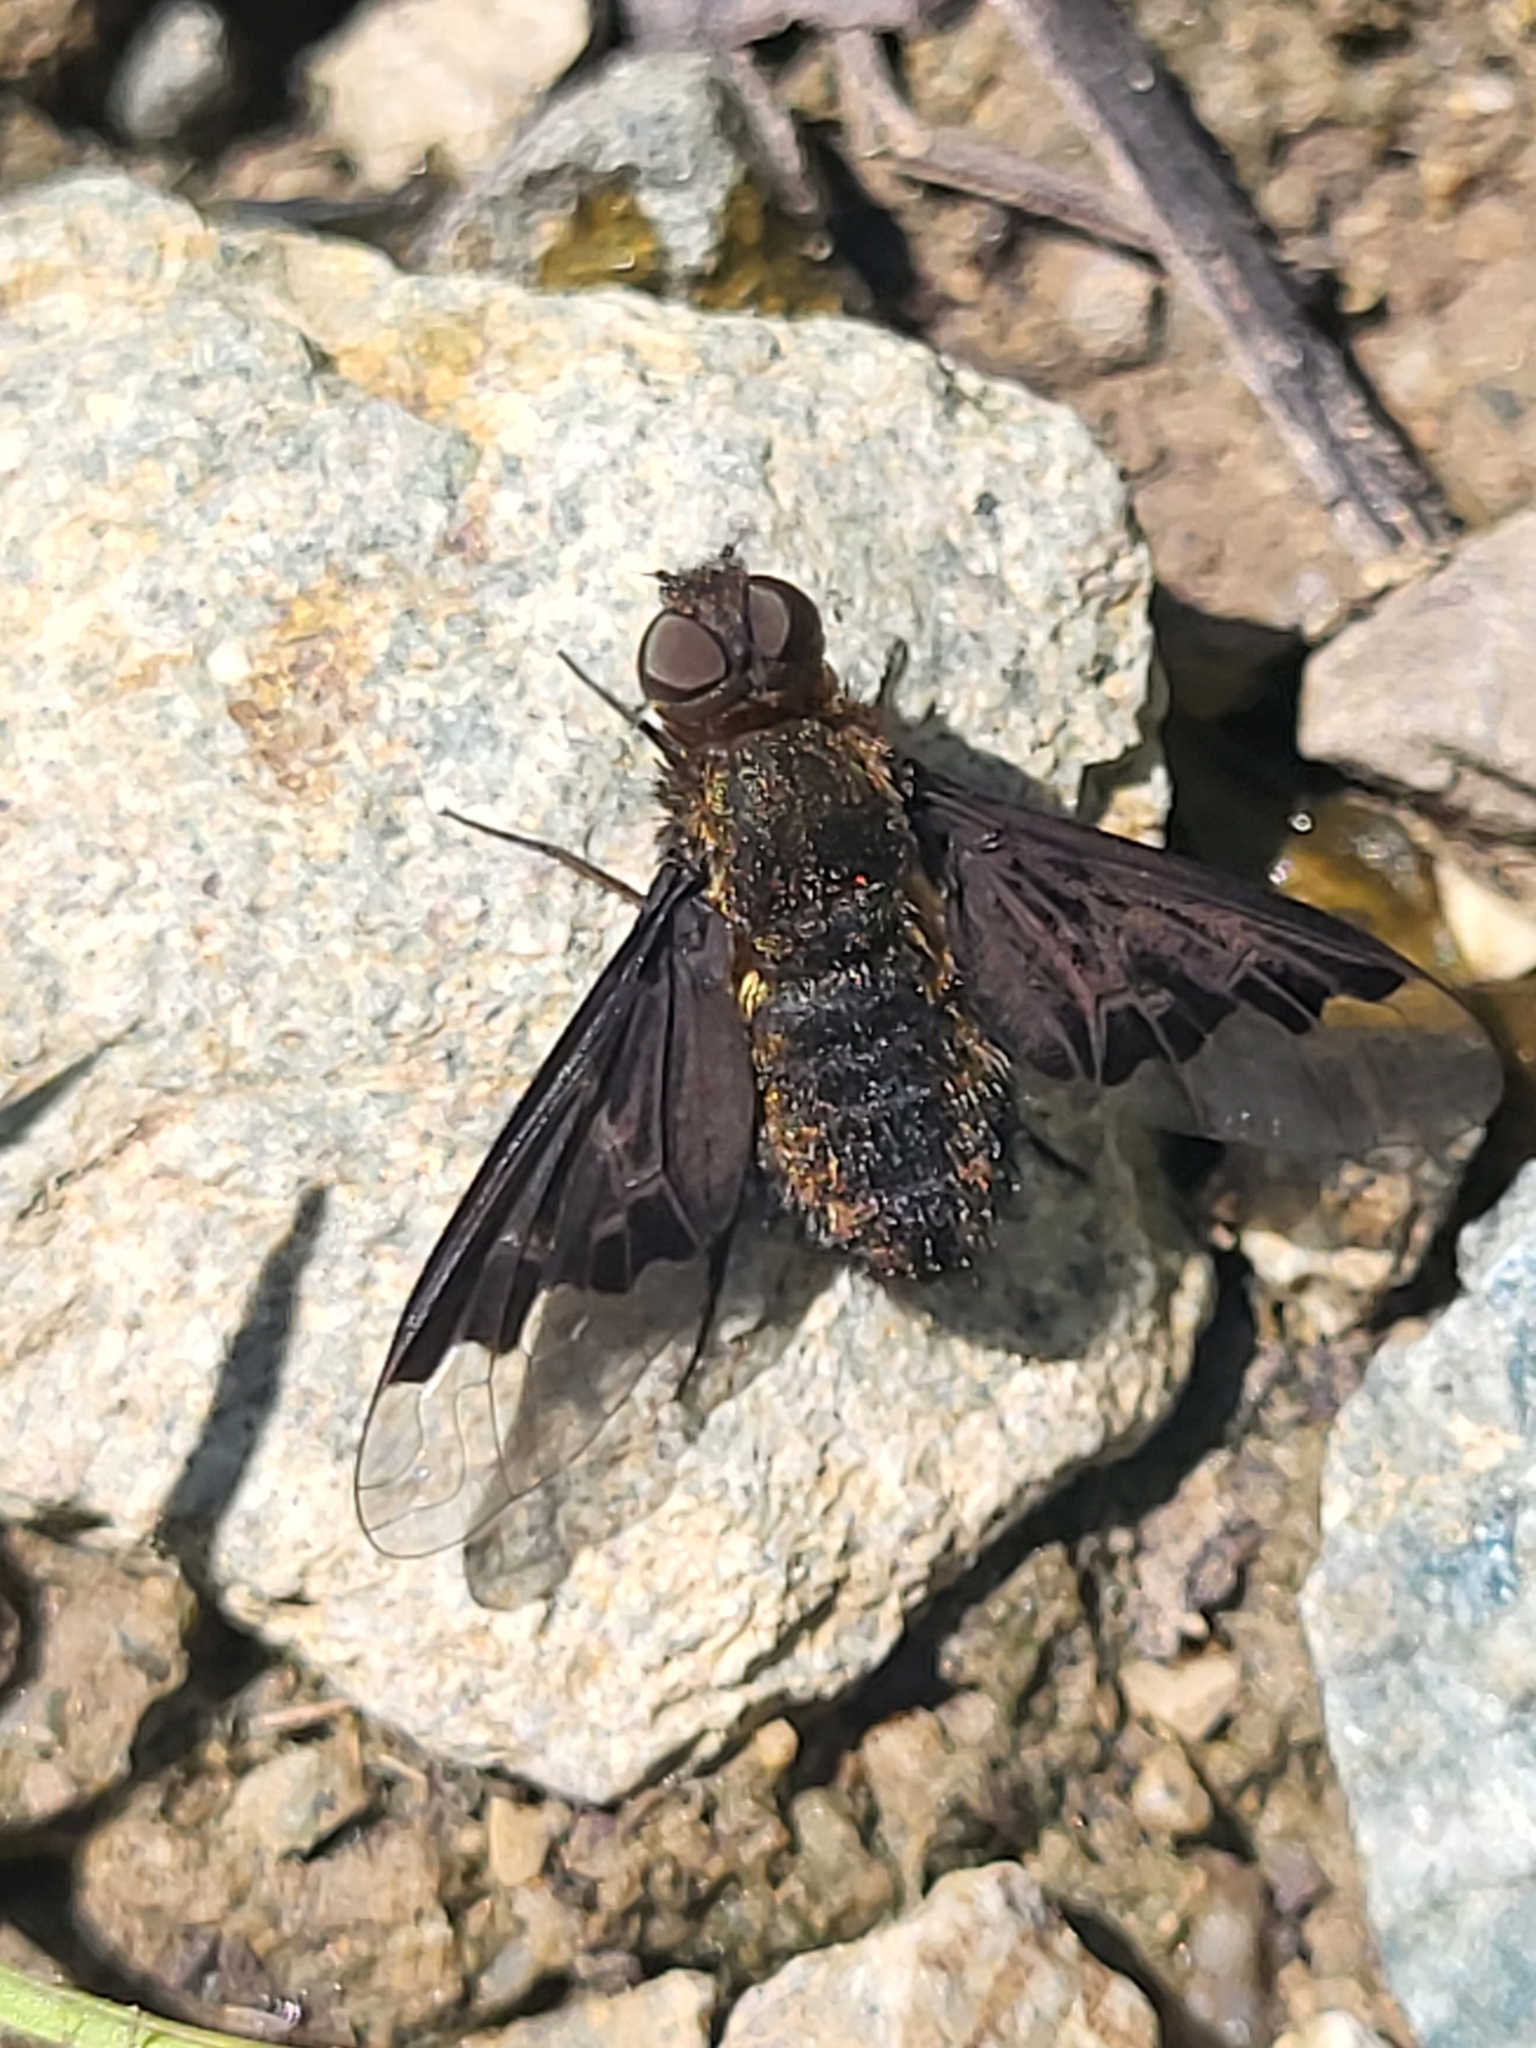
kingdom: Animalia
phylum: Arthropoda
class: Insecta
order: Diptera
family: Bombyliidae
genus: Hemipenthes
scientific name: Hemipenthes morio
